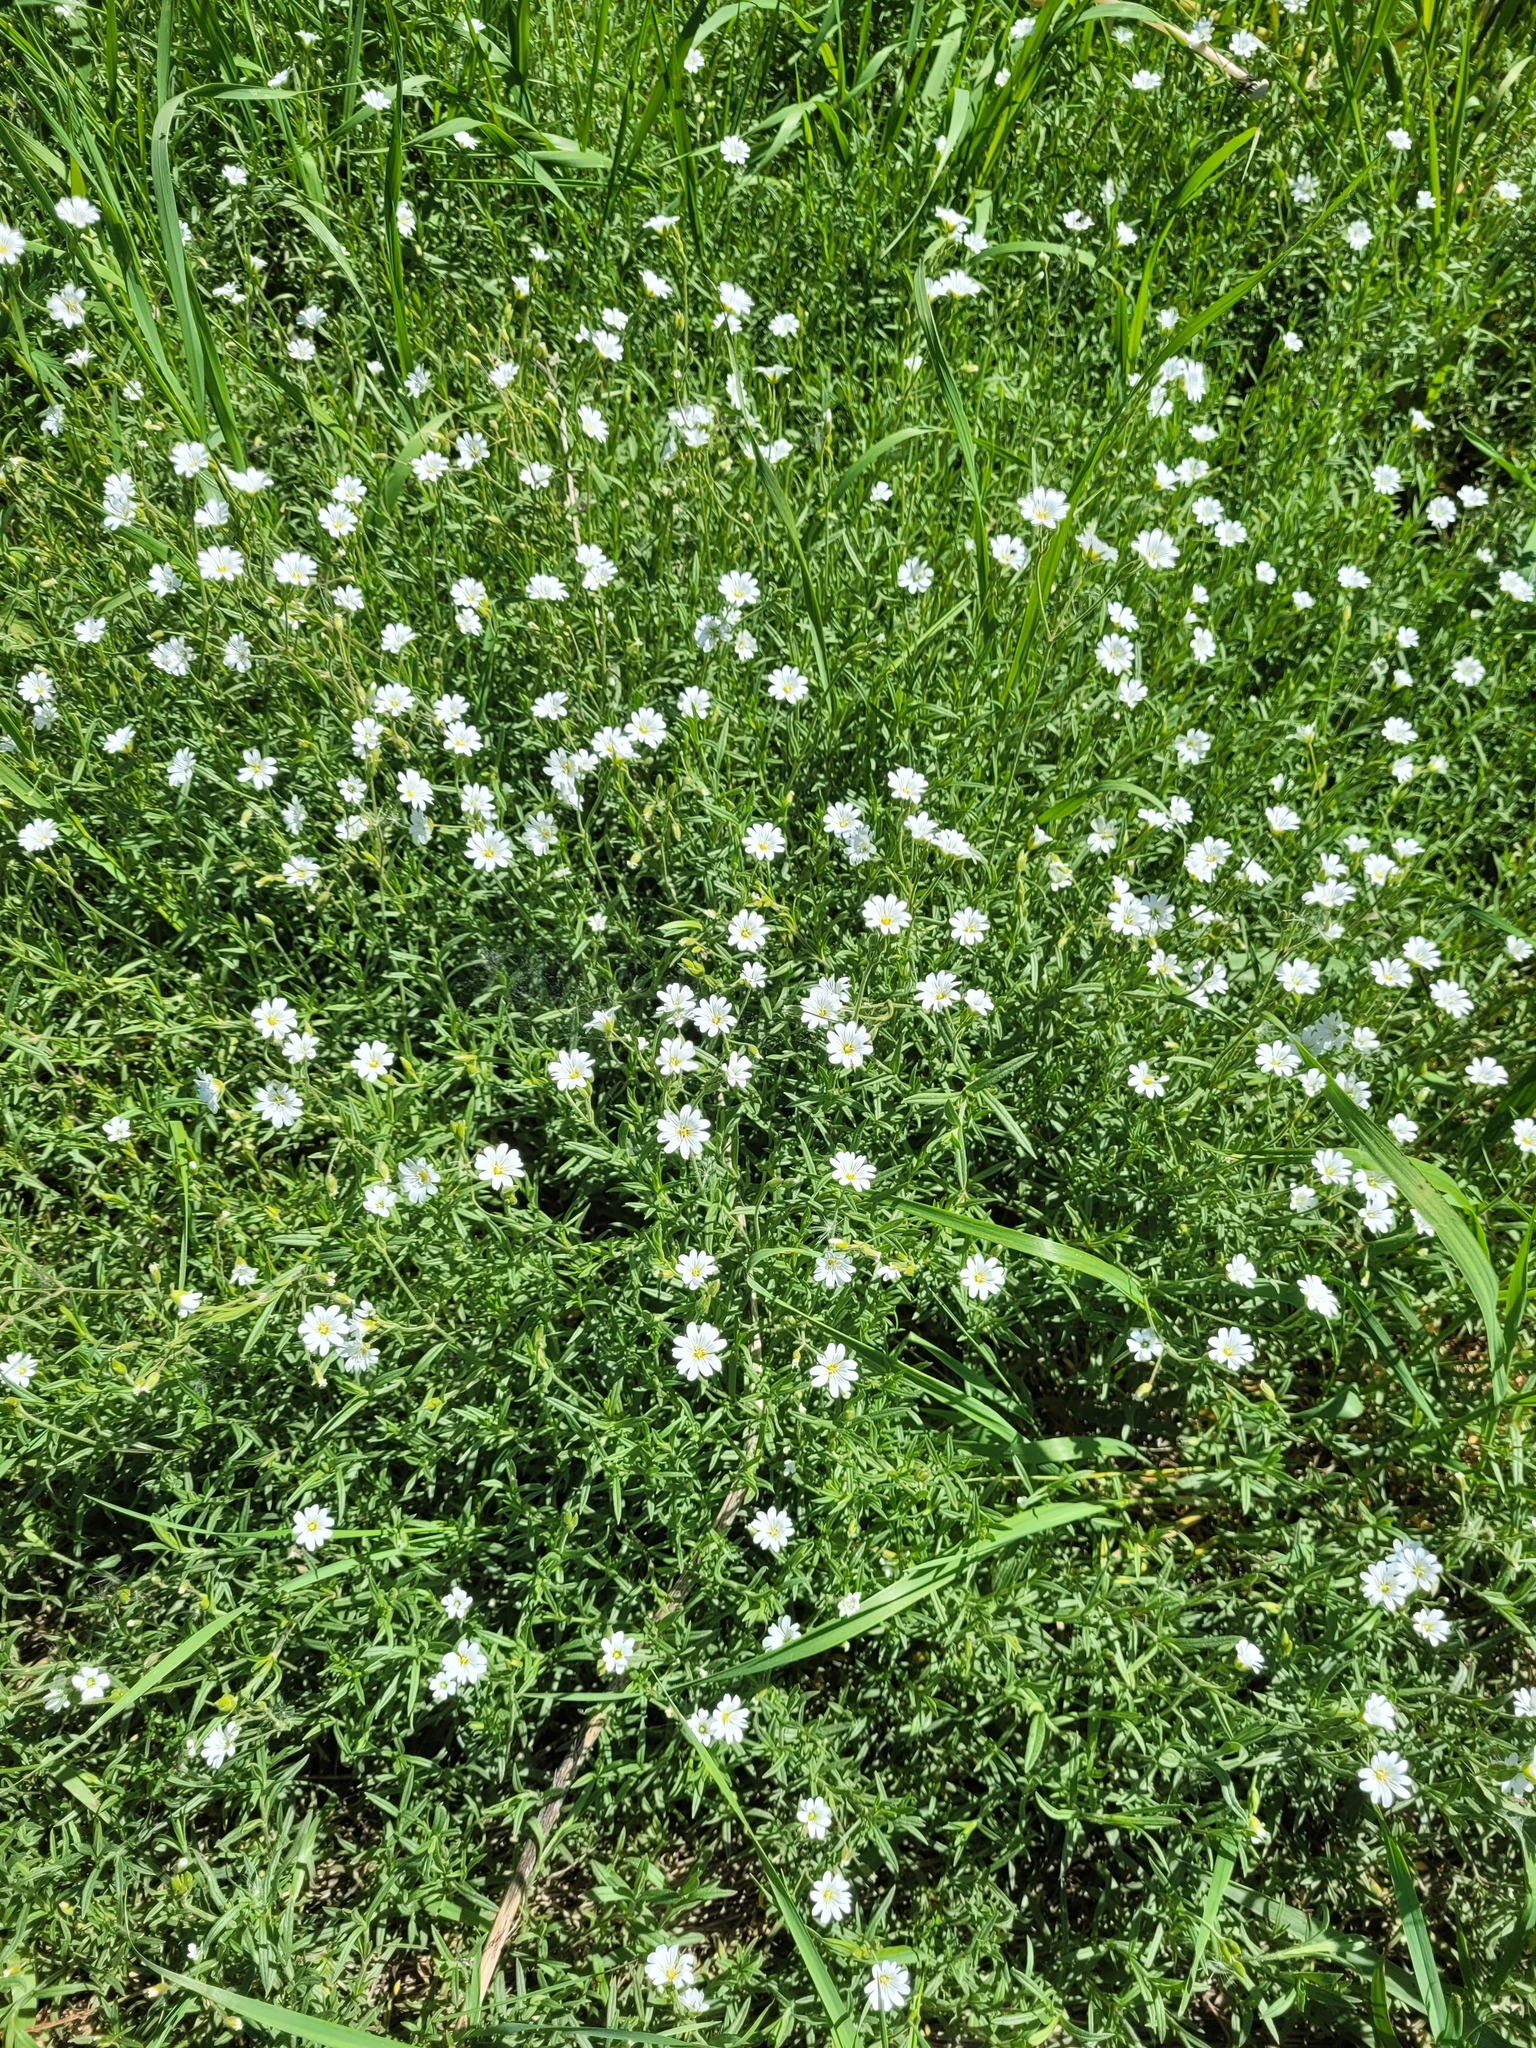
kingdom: Plantae
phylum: Tracheophyta
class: Magnoliopsida
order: Caryophyllales
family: Caryophyllaceae
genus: Cerastium
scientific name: Cerastium arvense
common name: Field mouse-ear
